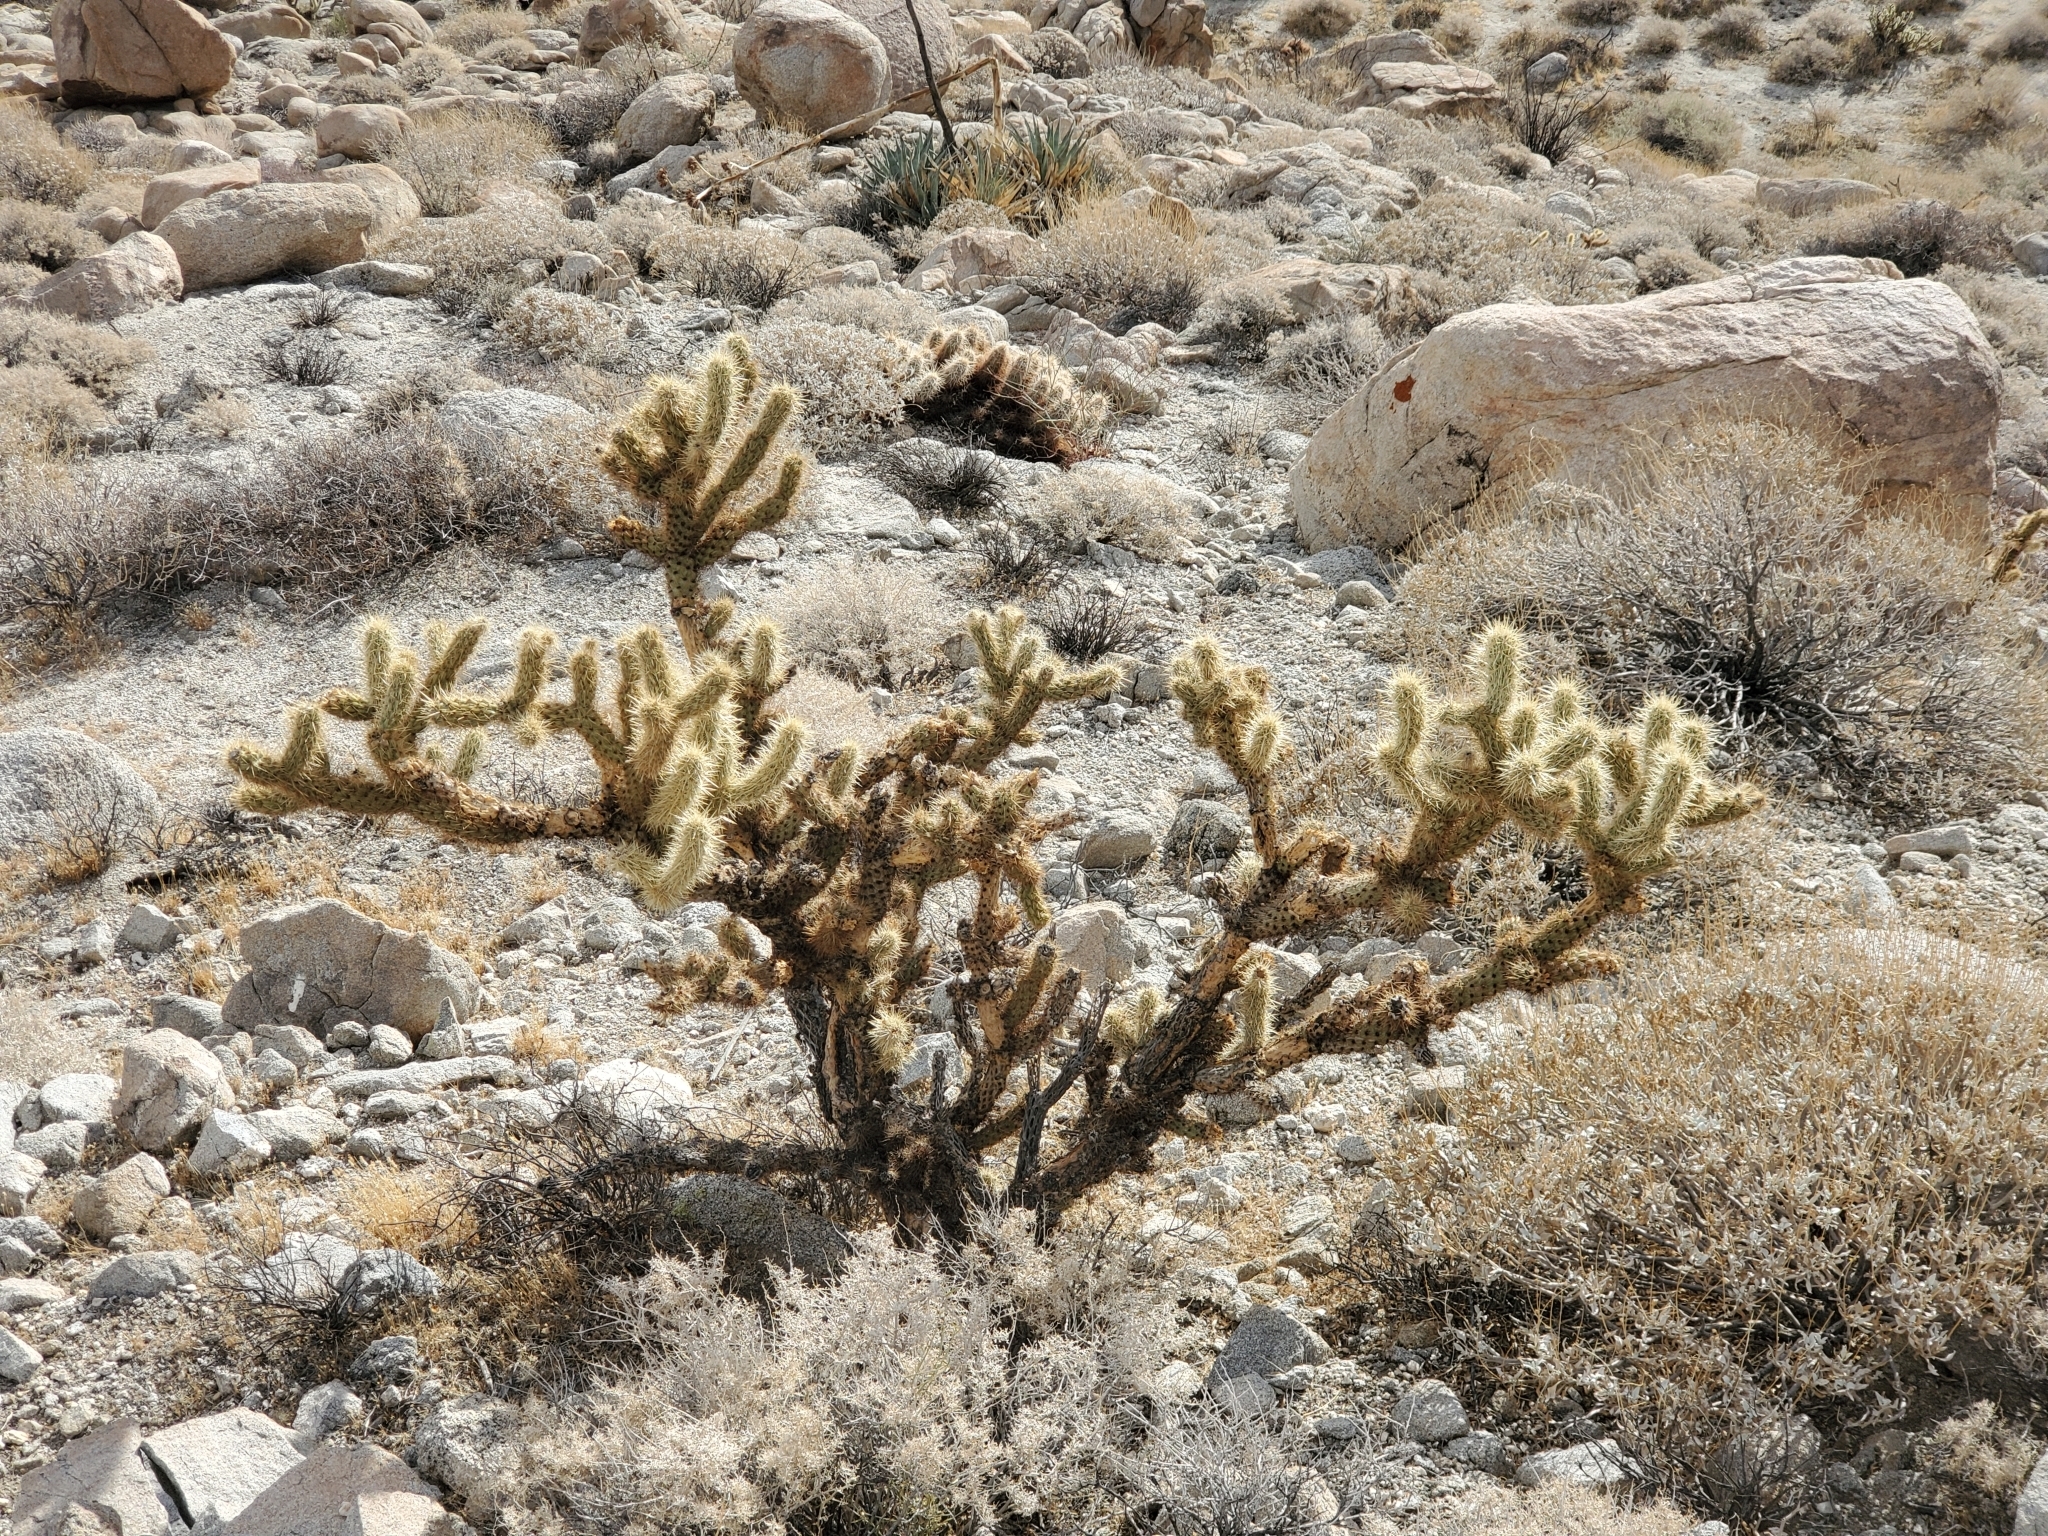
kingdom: Plantae
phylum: Tracheophyta
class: Magnoliopsida
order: Caryophyllales
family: Cactaceae
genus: Cylindropuntia
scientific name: Cylindropuntia echinocarpa
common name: Ground cholla
